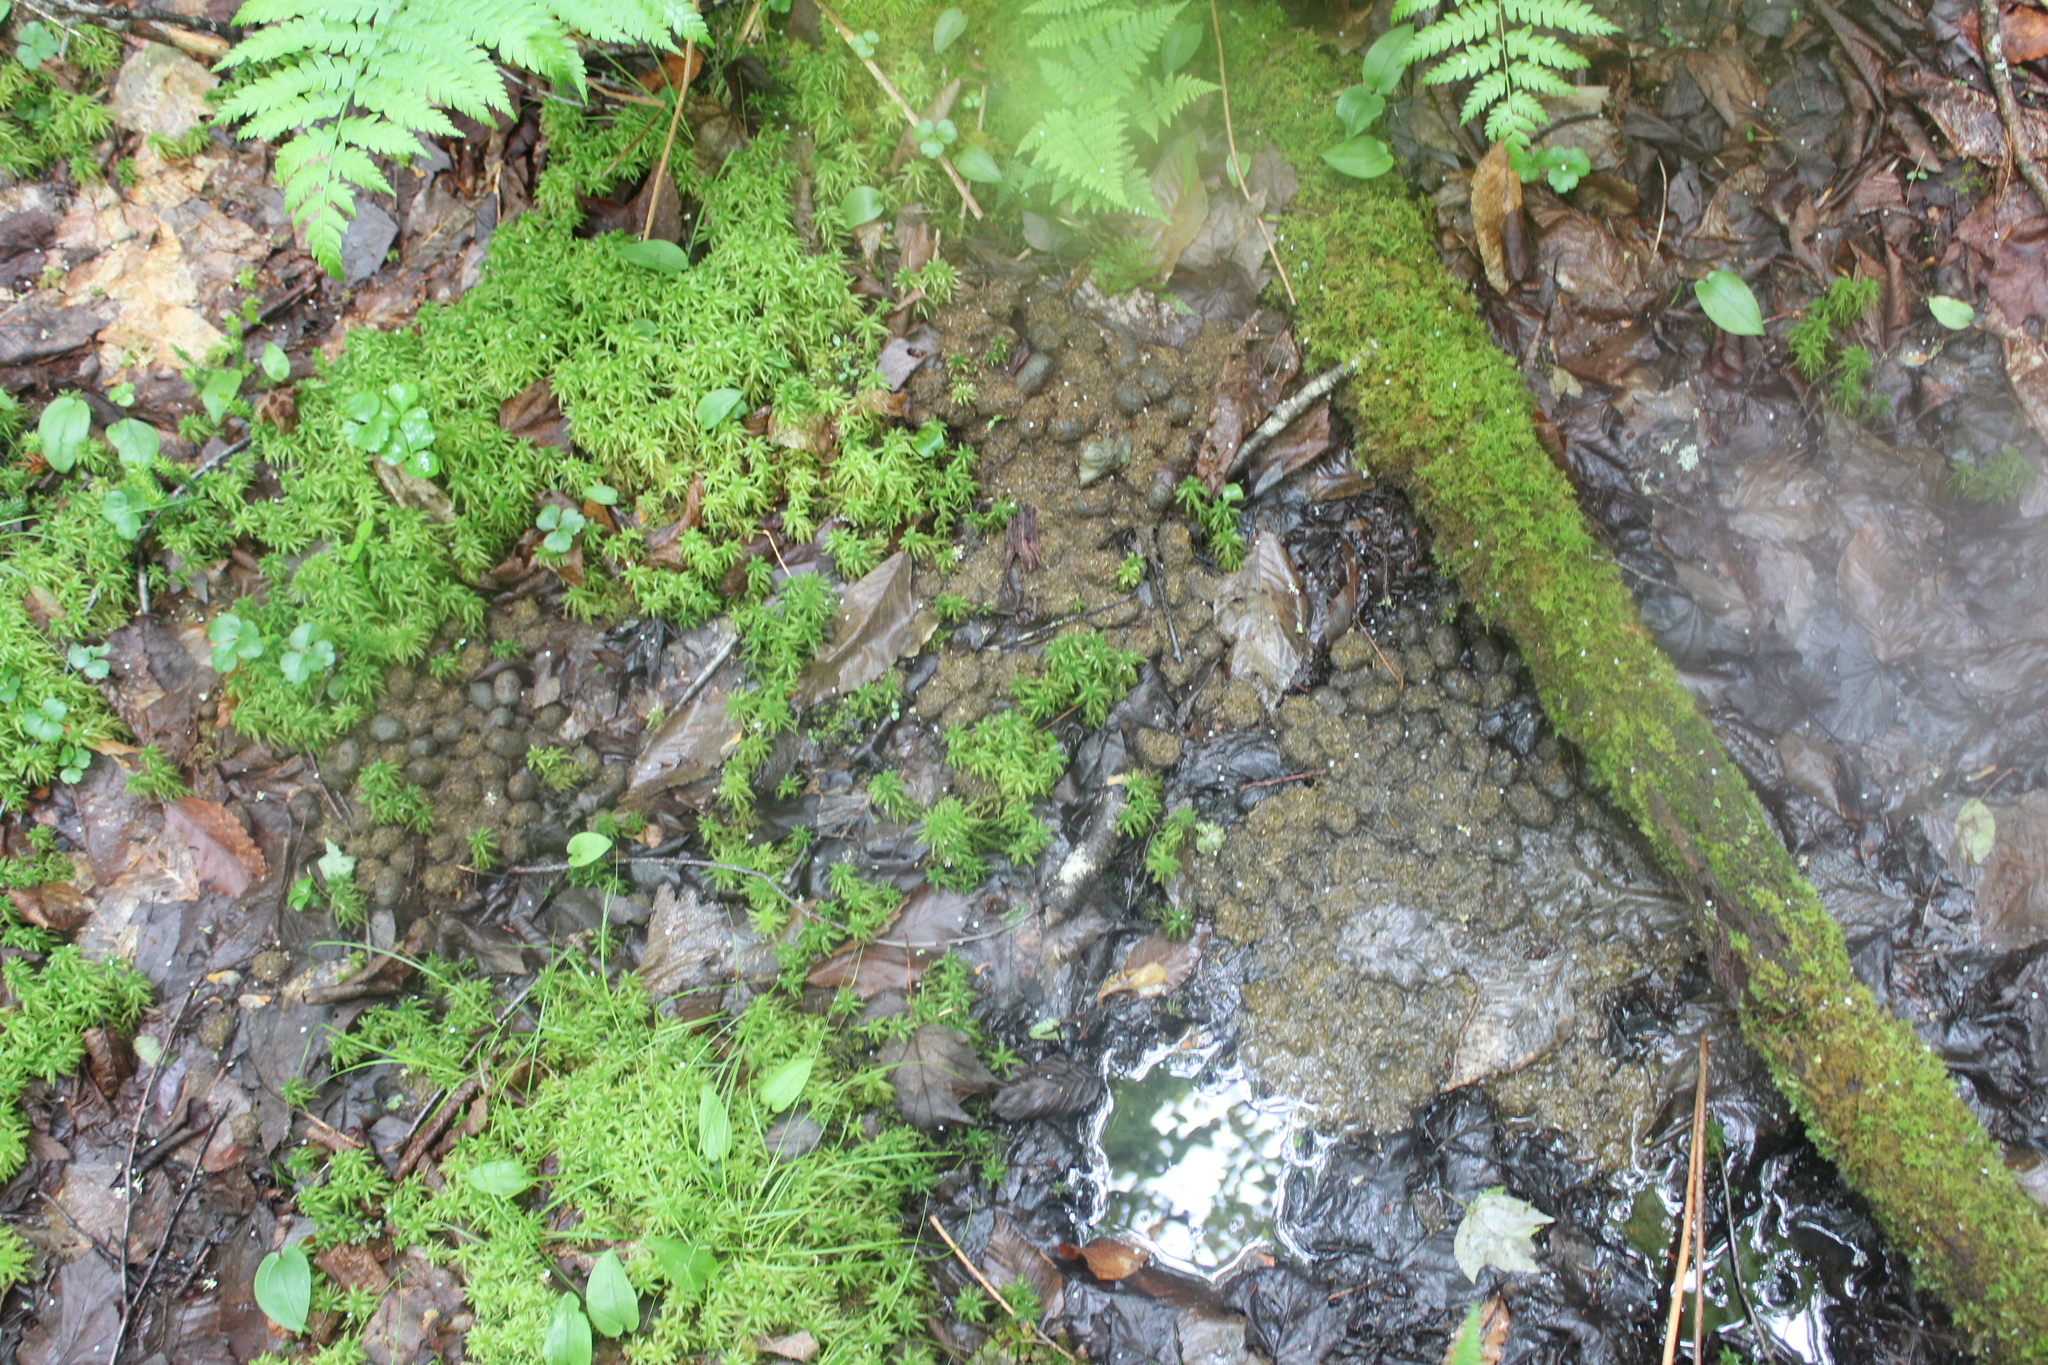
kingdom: Animalia
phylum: Chordata
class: Mammalia
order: Artiodactyla
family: Cervidae
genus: Alces
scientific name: Alces alces
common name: Moose
